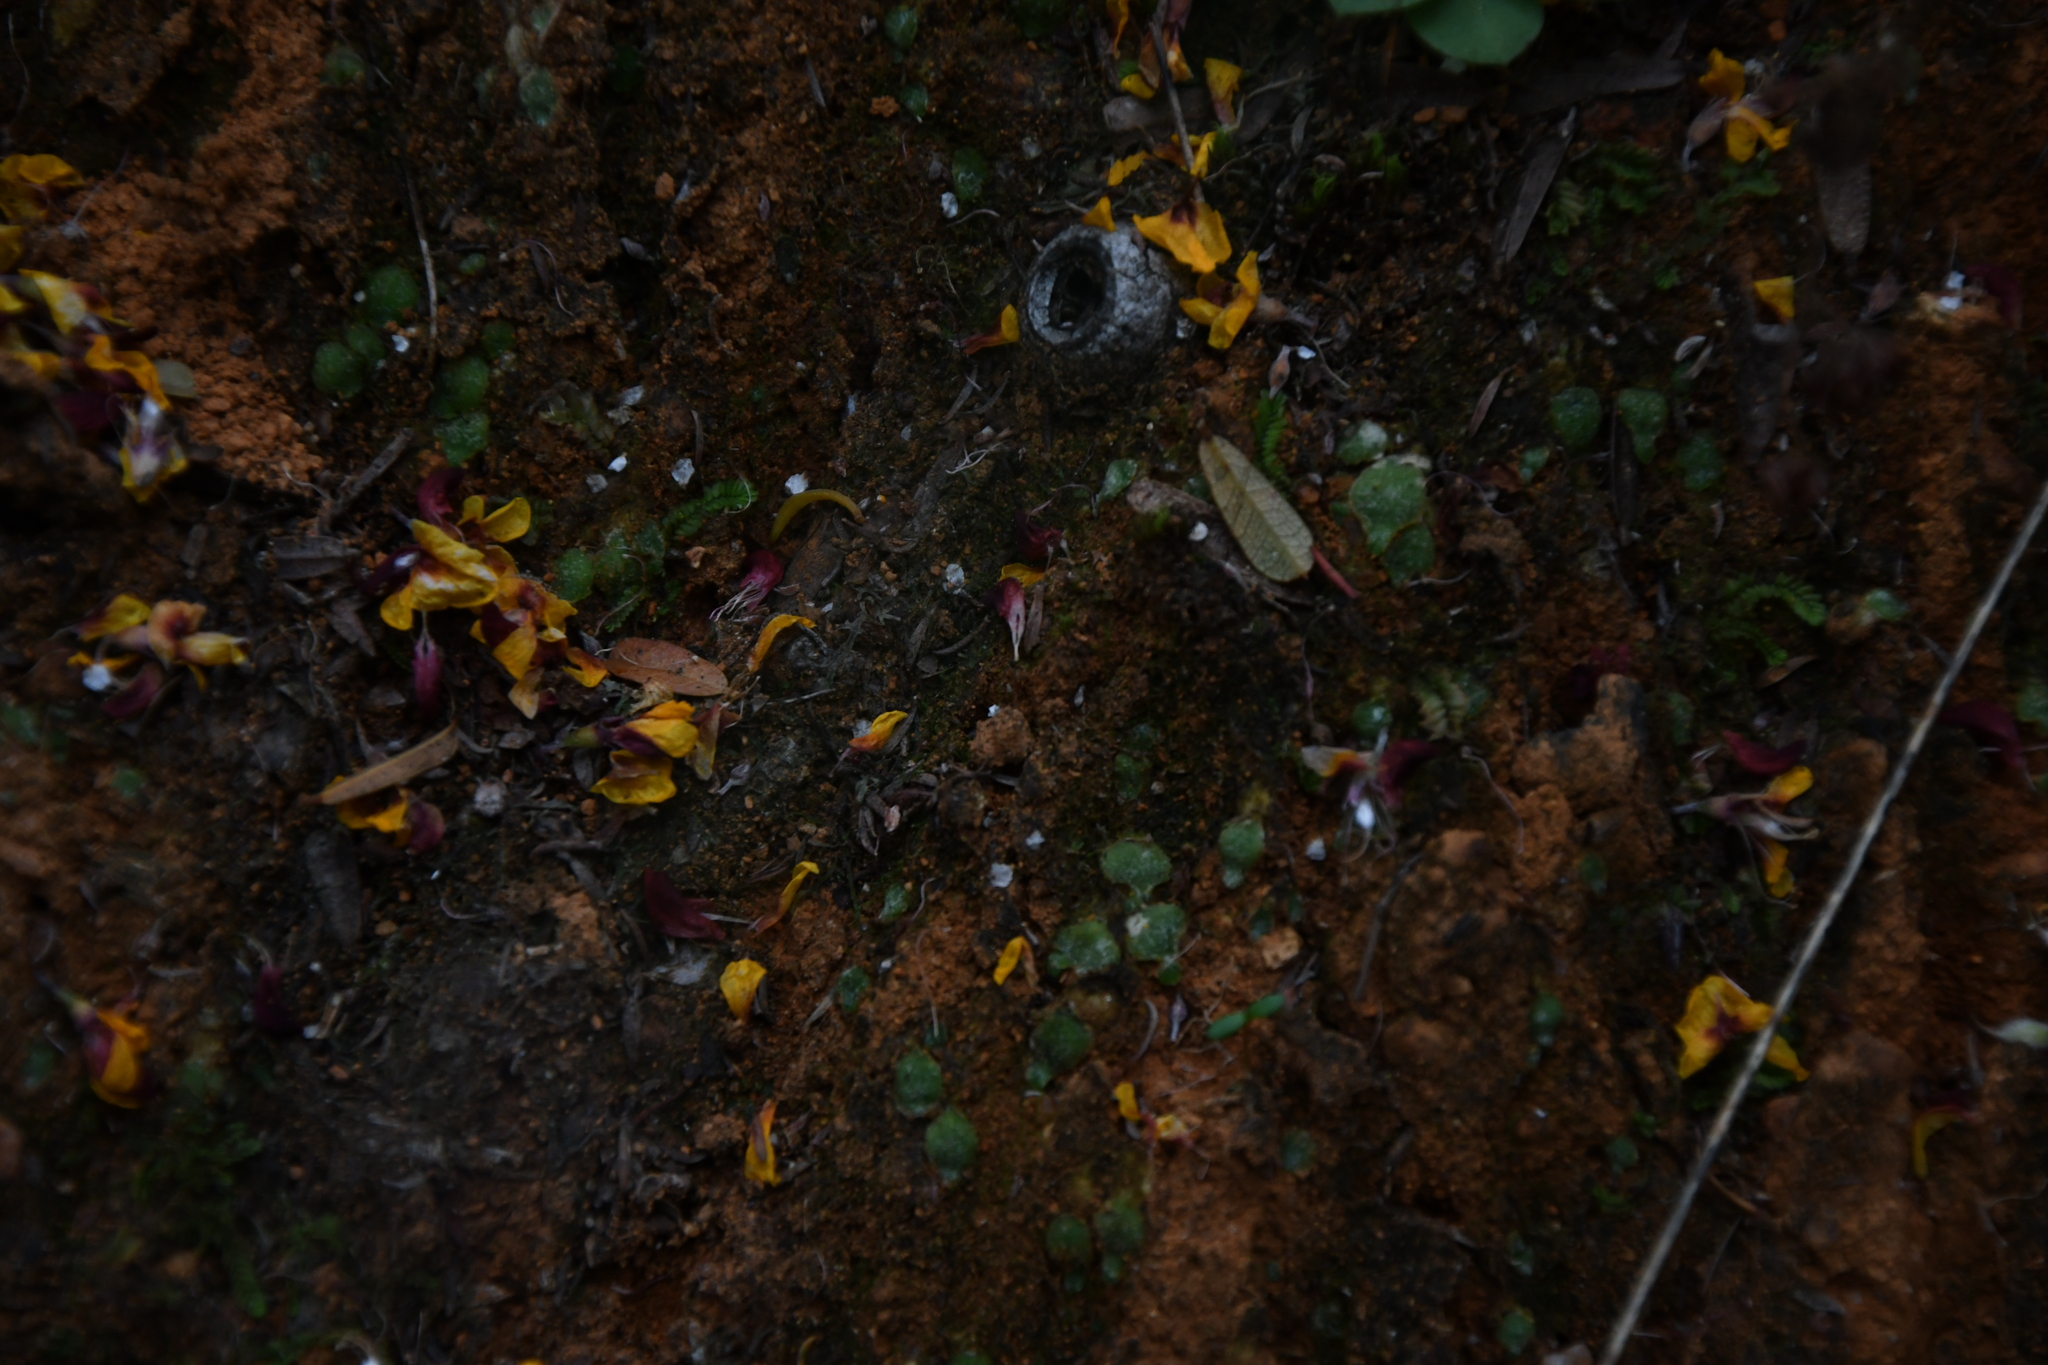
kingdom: Plantae
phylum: Marchantiophyta
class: Jungermanniopsida
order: Jungermanniales
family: Acrobolbaceae
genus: Enigmella
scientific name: Enigmella thallina
